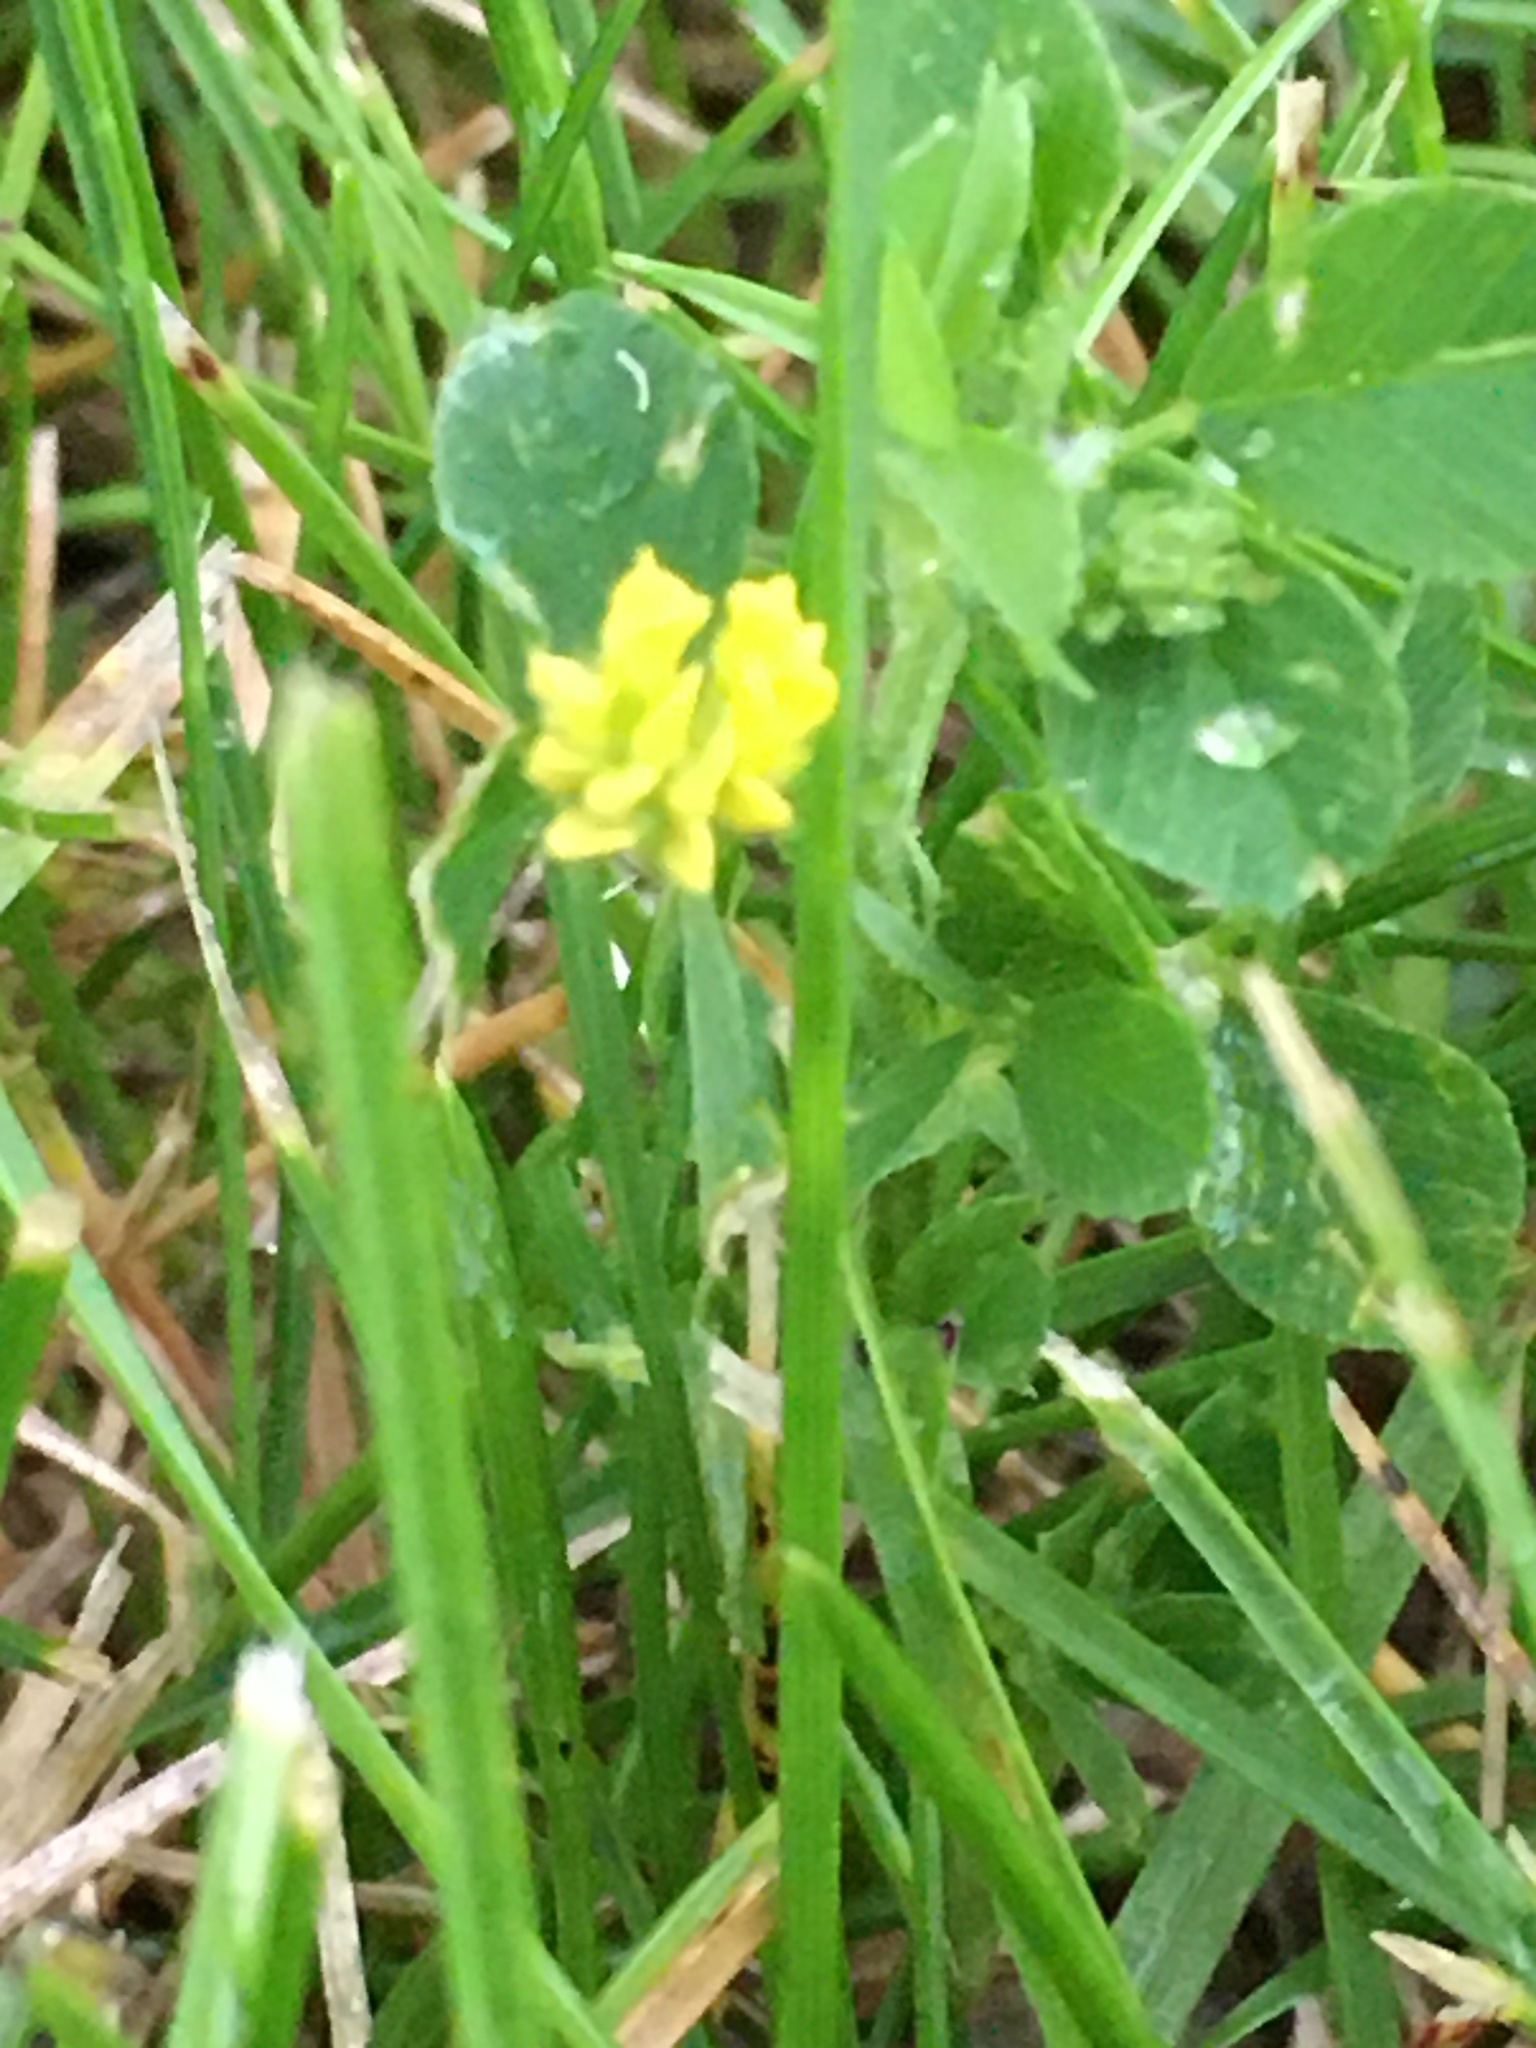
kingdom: Plantae
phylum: Tracheophyta
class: Magnoliopsida
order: Fabales
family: Fabaceae
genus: Medicago
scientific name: Medicago lupulina
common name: Black medick
